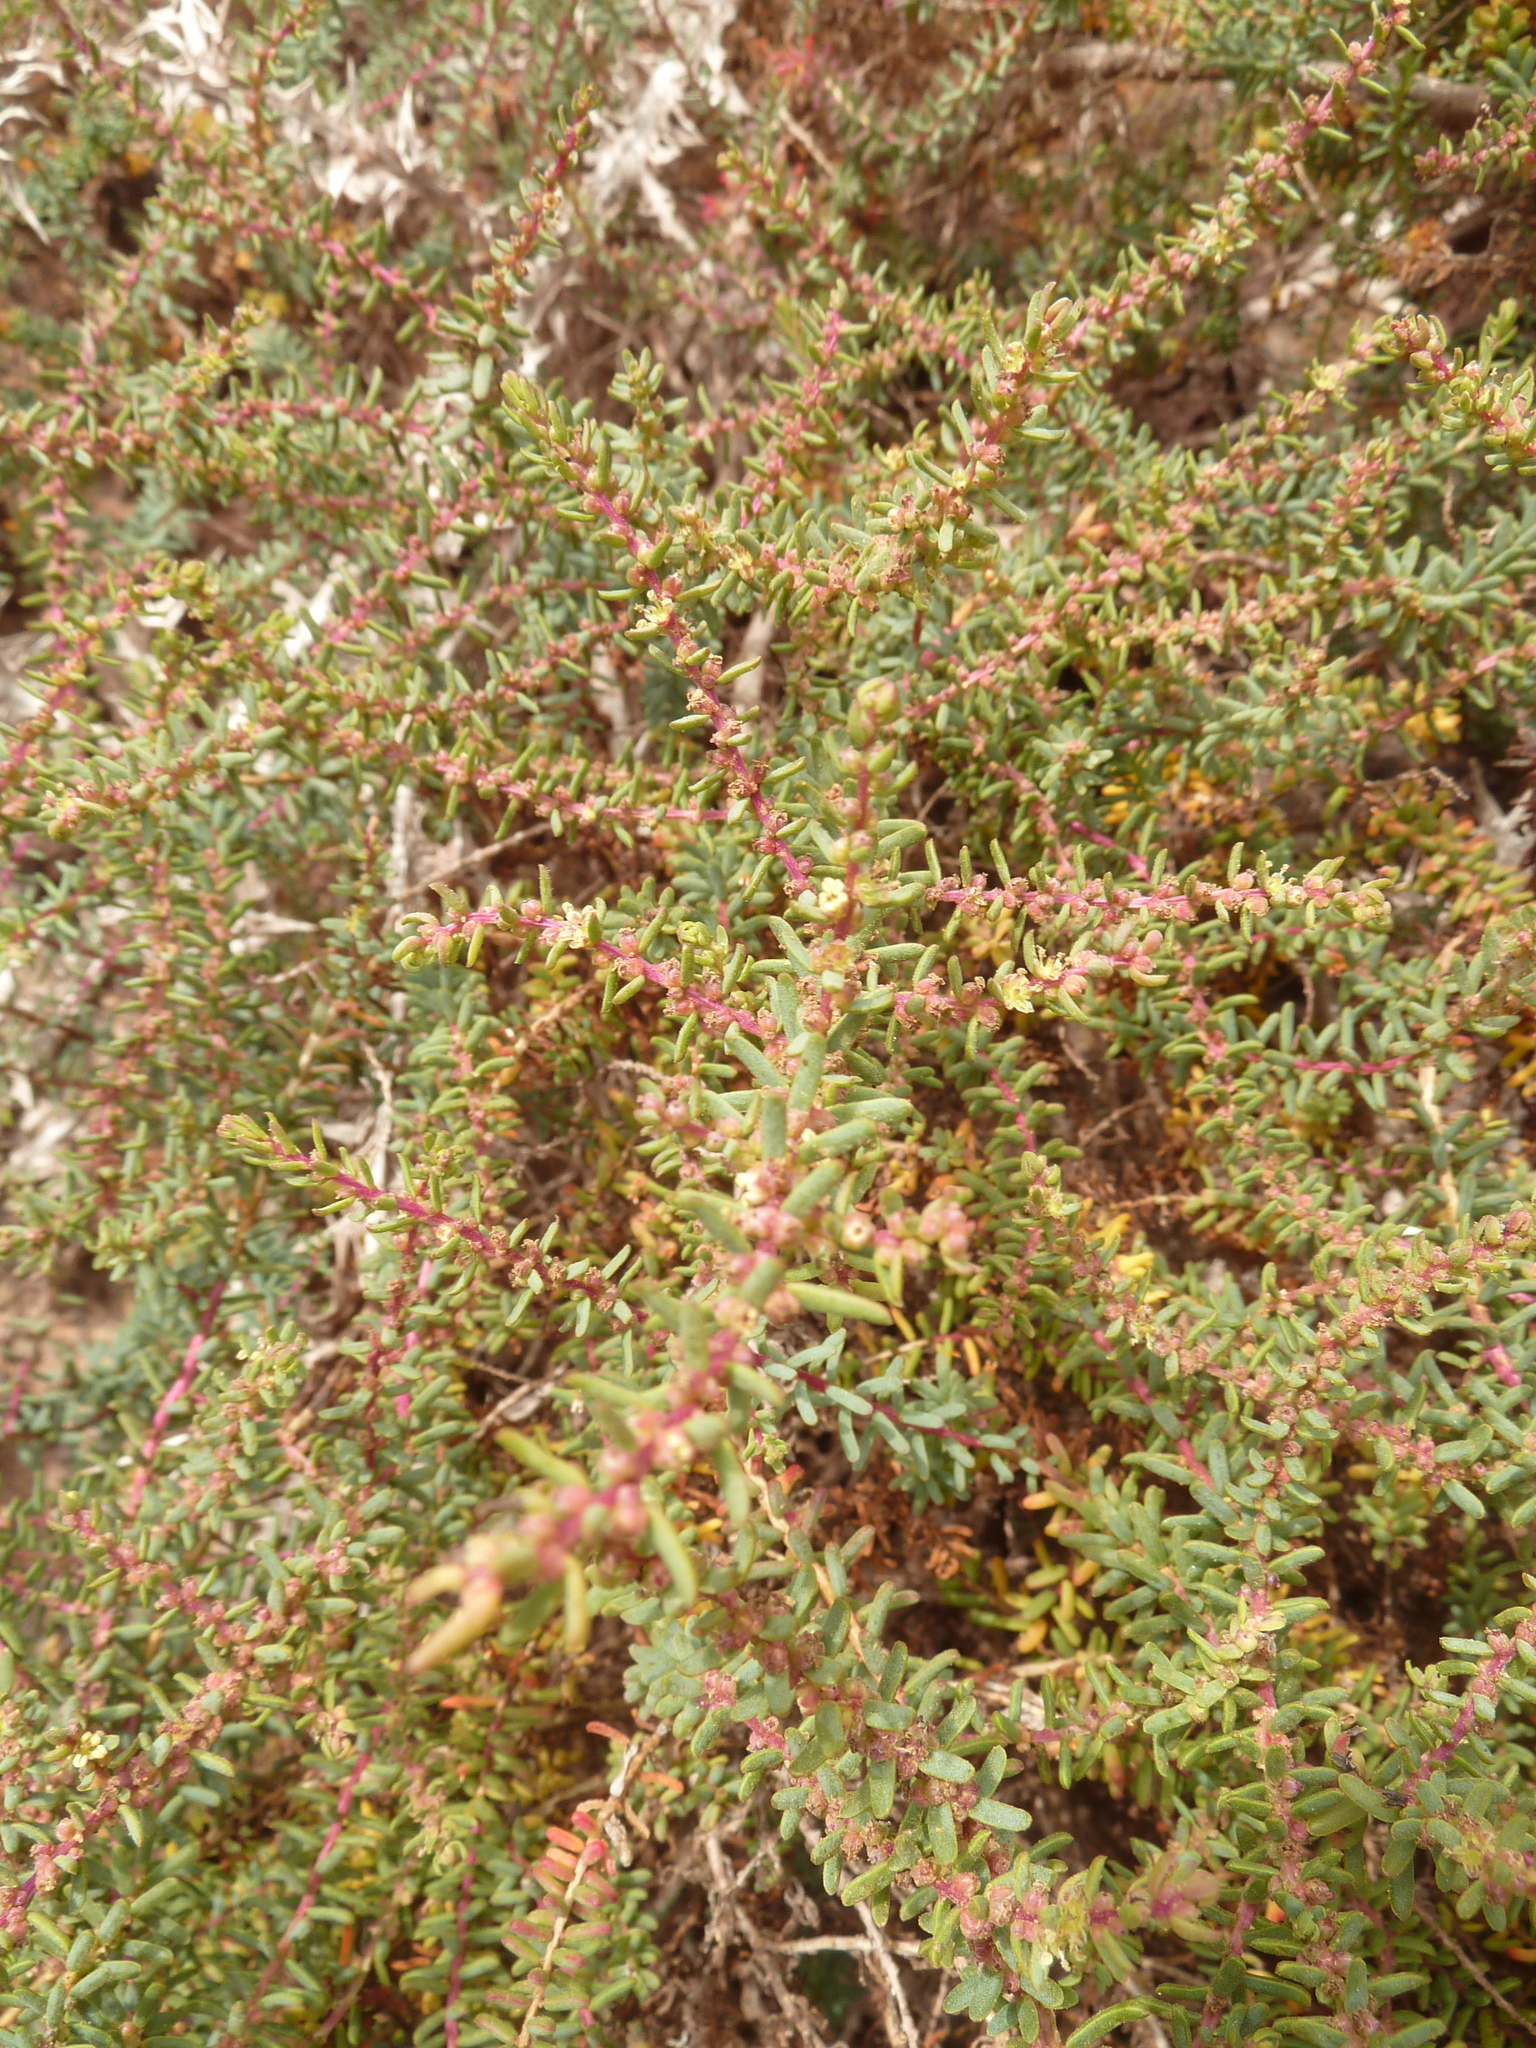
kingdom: Plantae
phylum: Tracheophyta
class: Magnoliopsida
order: Caryophyllales
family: Amaranthaceae
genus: Suaeda
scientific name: Suaeda vera
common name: Shrubby sea-blite
